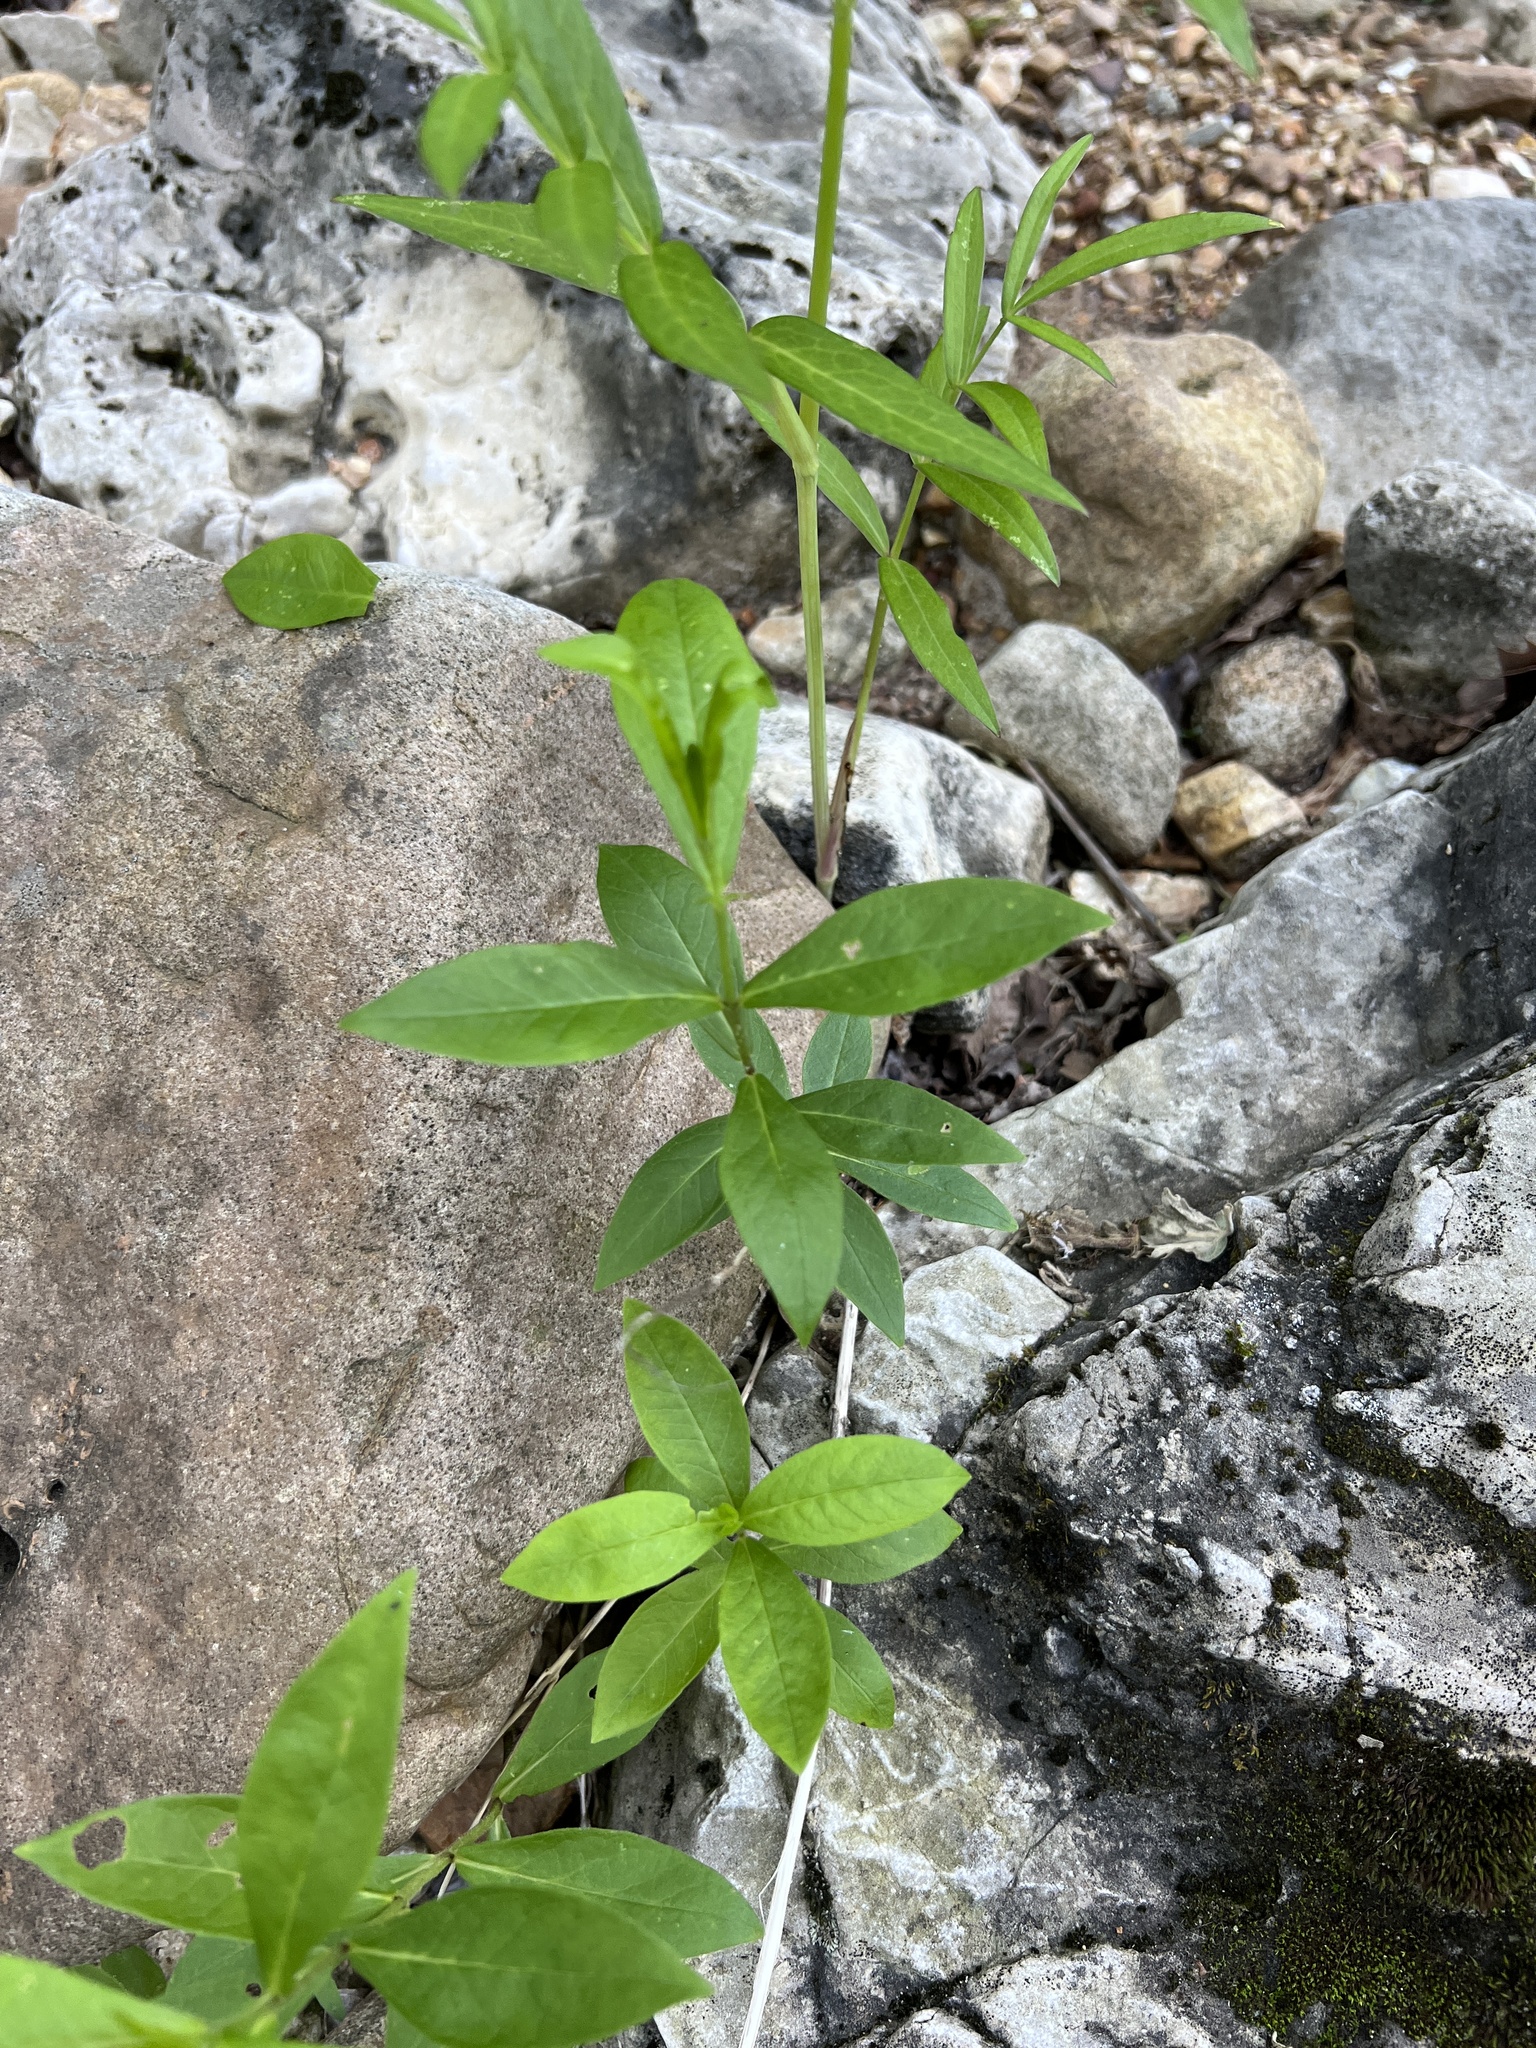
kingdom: Plantae
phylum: Tracheophyta
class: Magnoliopsida
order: Ericales
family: Polemoniaceae
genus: Phlox
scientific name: Phlox paniculata
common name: Fall phlox
